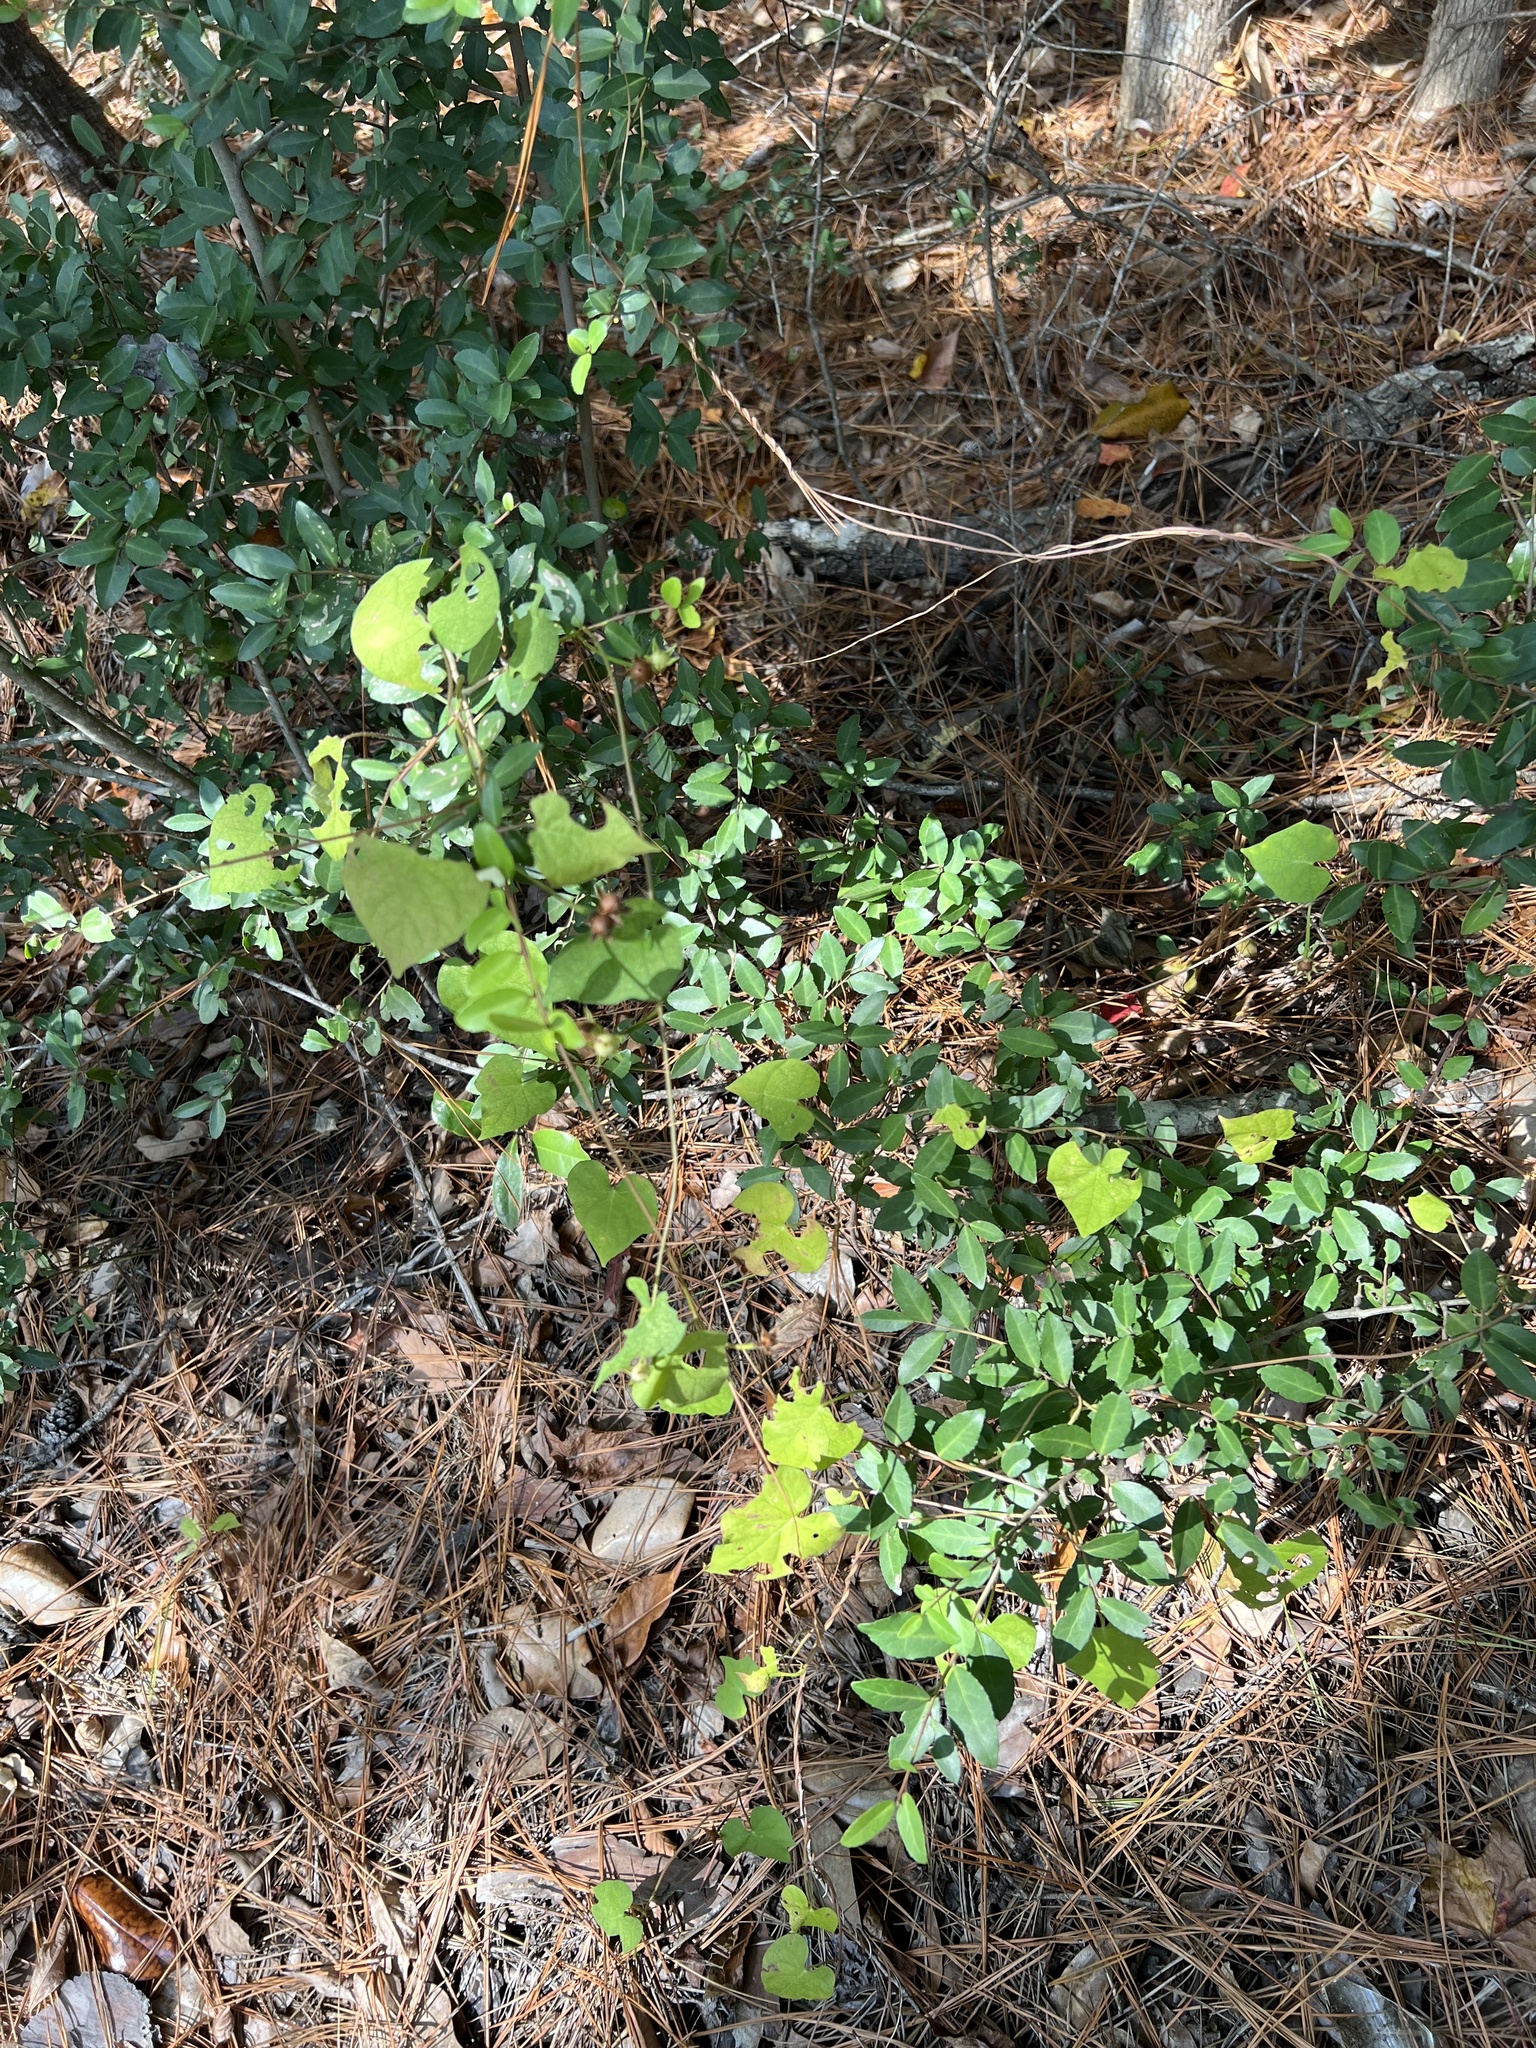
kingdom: Plantae
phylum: Tracheophyta
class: Magnoliopsida
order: Solanales
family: Convolvulaceae
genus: Ipomoea
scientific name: Ipomoea pandurata
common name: Man-of-the-earth
